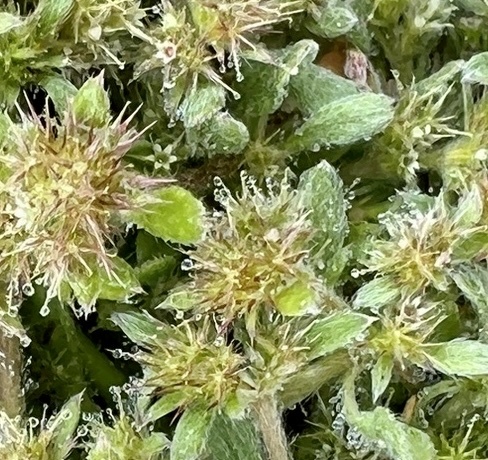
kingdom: Plantae
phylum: Tracheophyta
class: Magnoliopsida
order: Caryophyllales
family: Polygonaceae
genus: Chorizanthe
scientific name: Chorizanthe minutiflora
